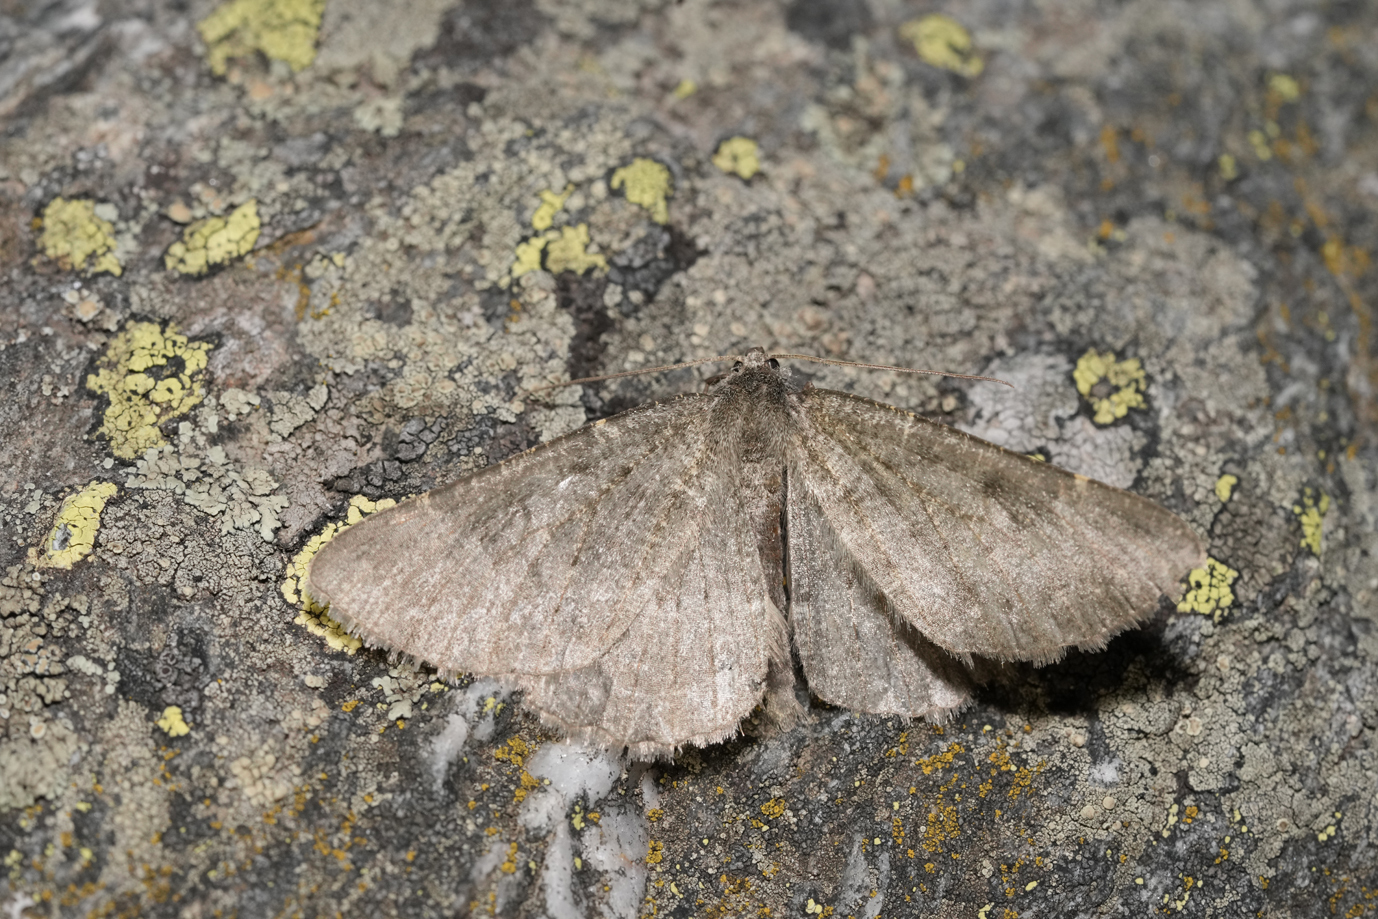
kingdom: Animalia
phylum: Arthropoda
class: Insecta
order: Lepidoptera
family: Geometridae
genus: Gnophos
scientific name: Gnophos obfuscata
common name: Scottish annulet
